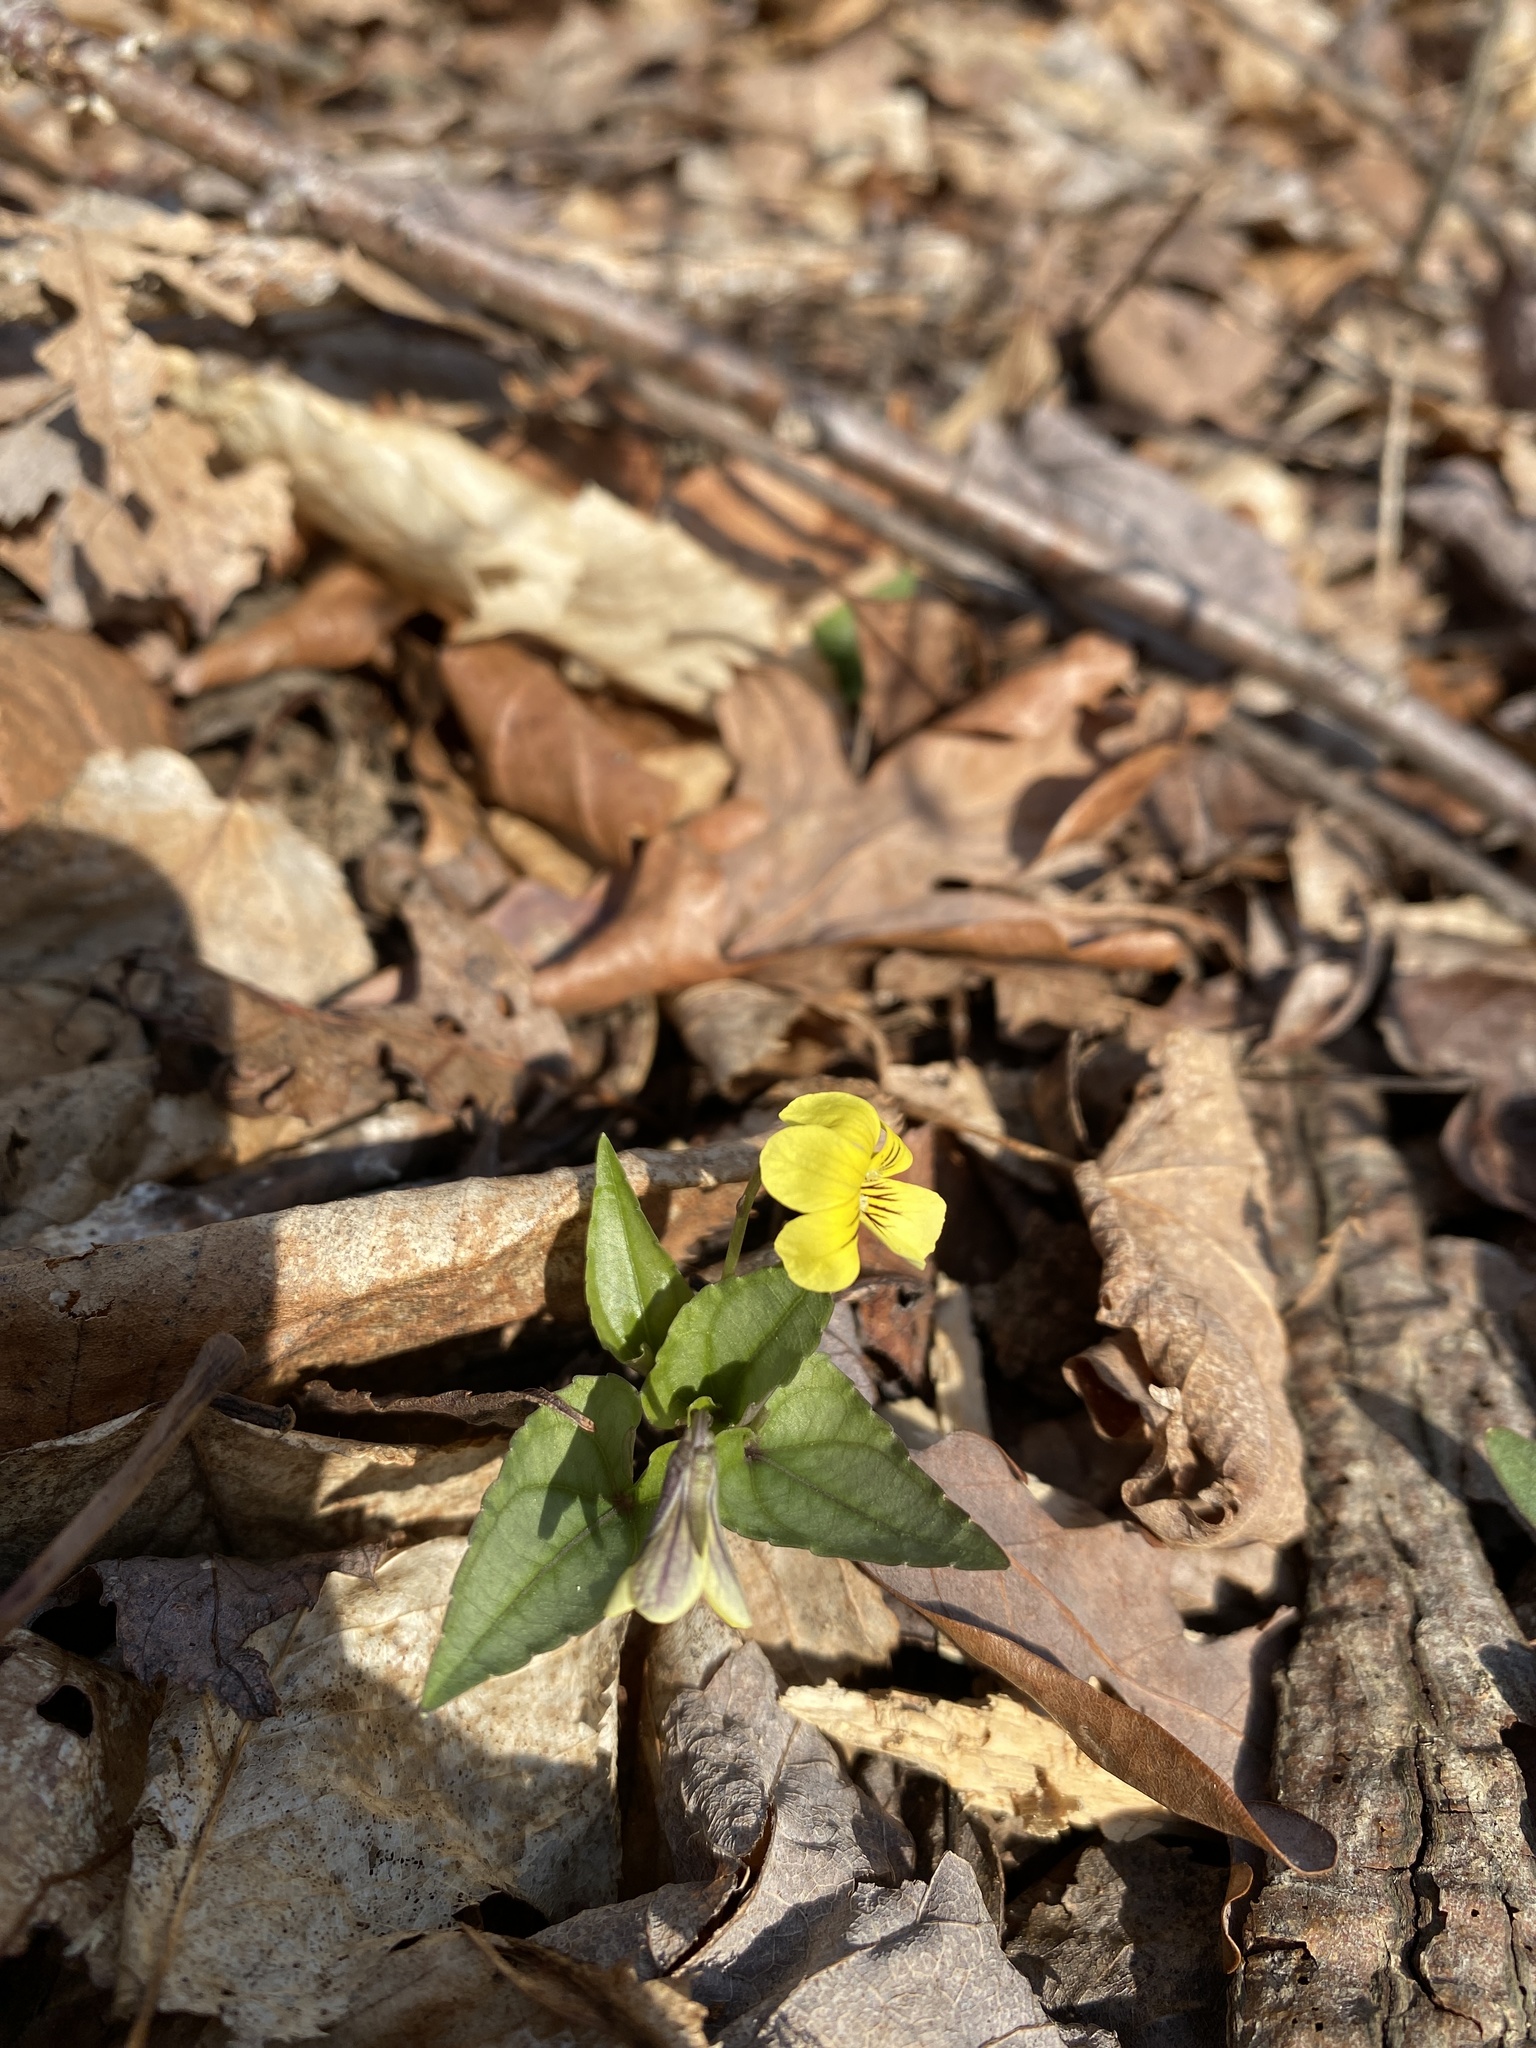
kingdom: Plantae
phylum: Tracheophyta
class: Magnoliopsida
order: Malpighiales
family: Violaceae
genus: Viola
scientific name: Viola hastata
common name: Spear-leaf violet
